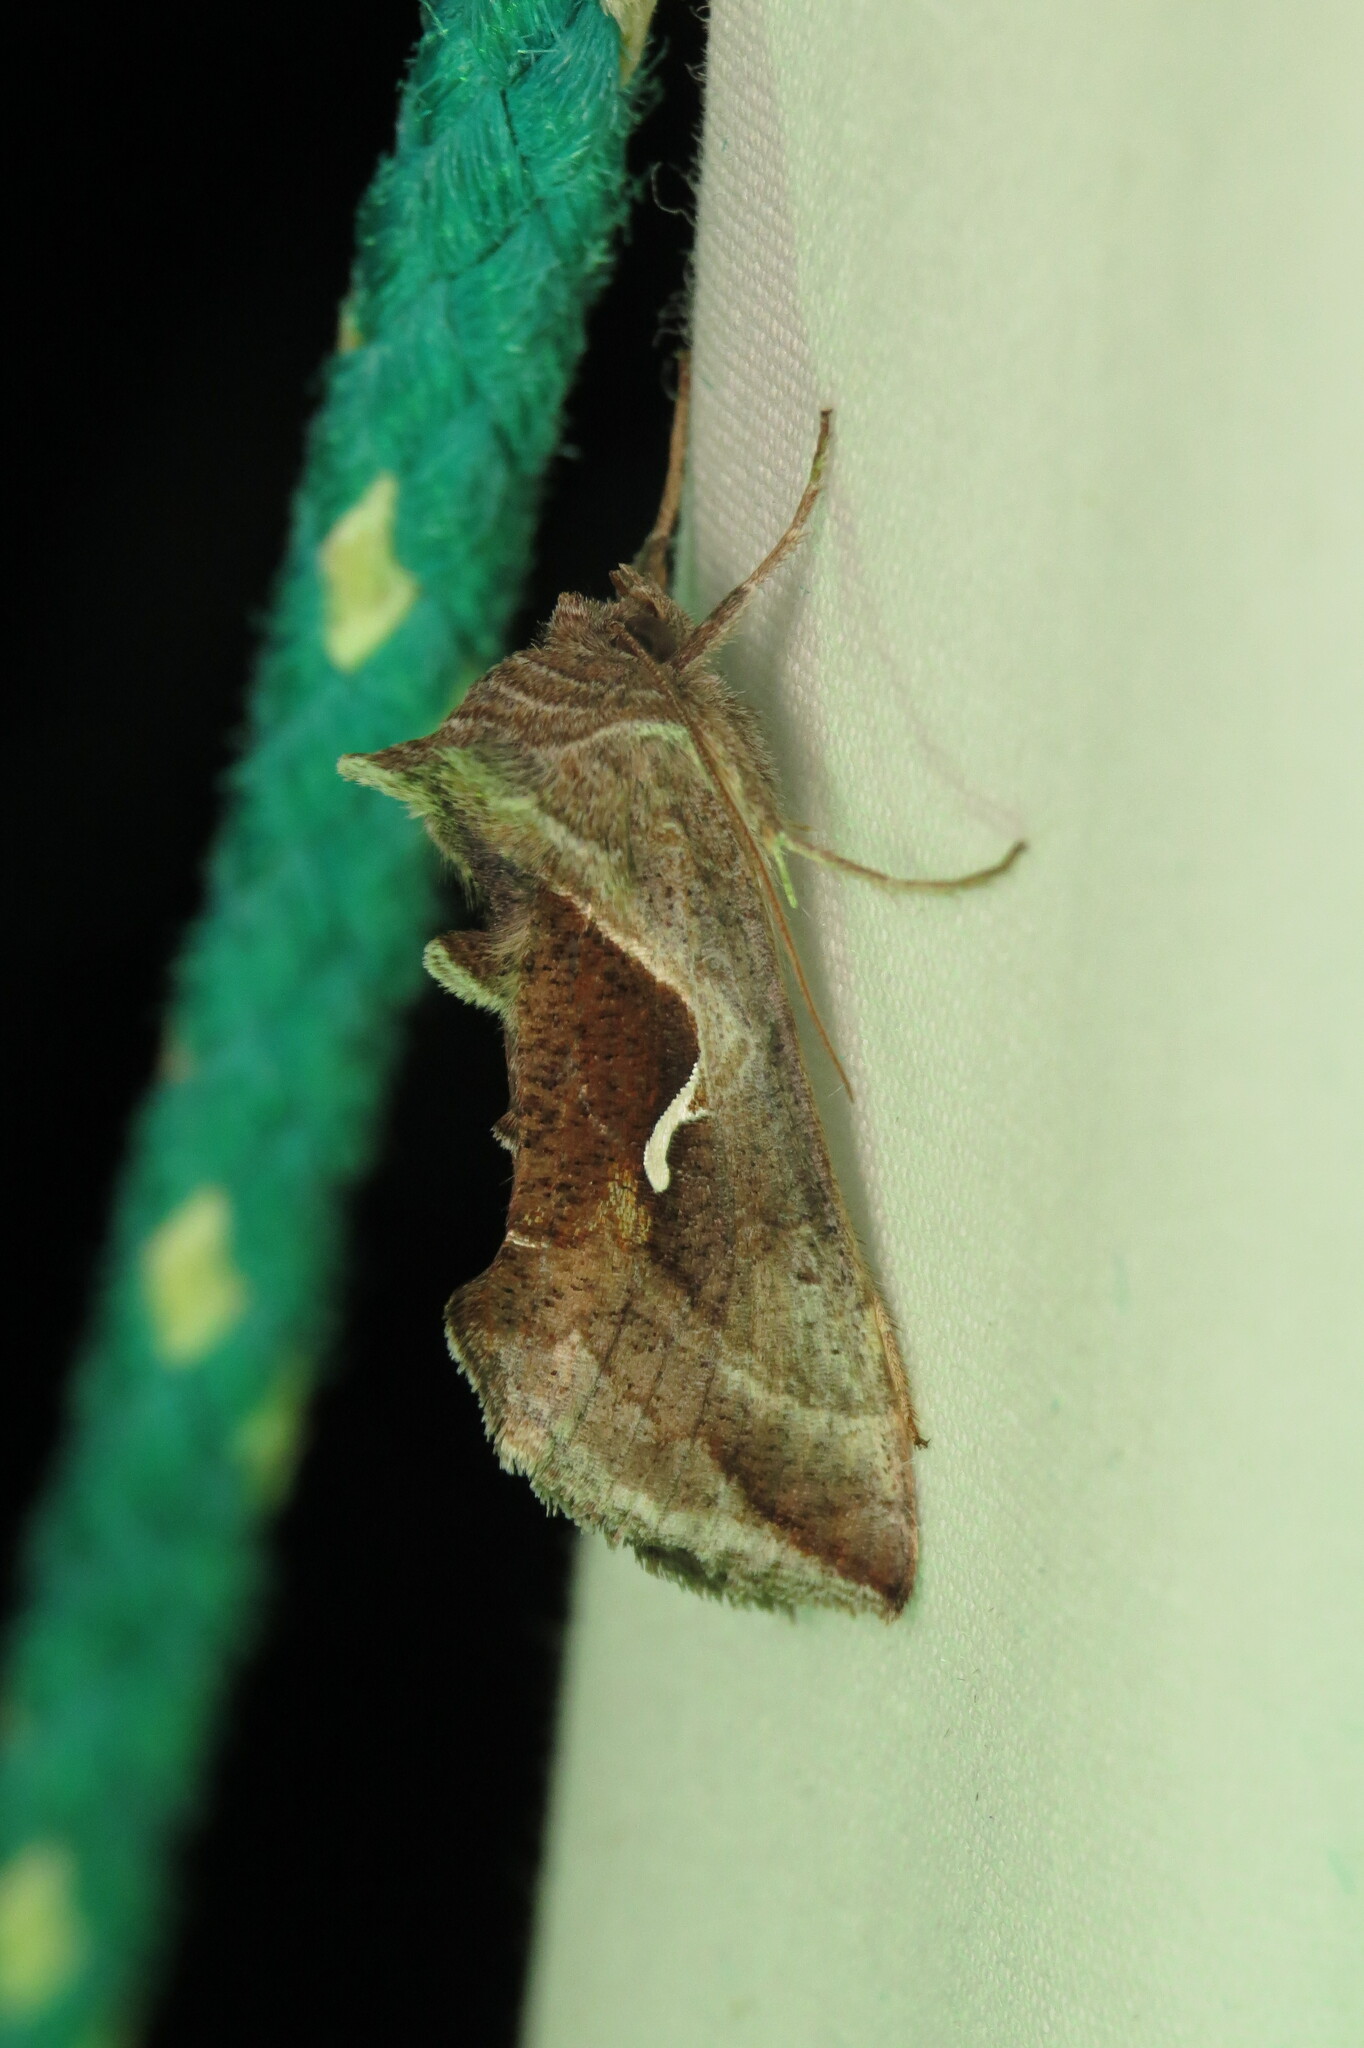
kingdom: Animalia
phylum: Arthropoda
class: Insecta
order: Lepidoptera
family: Noctuidae
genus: Anagrapha
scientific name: Anagrapha falcifera
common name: Celery looper
